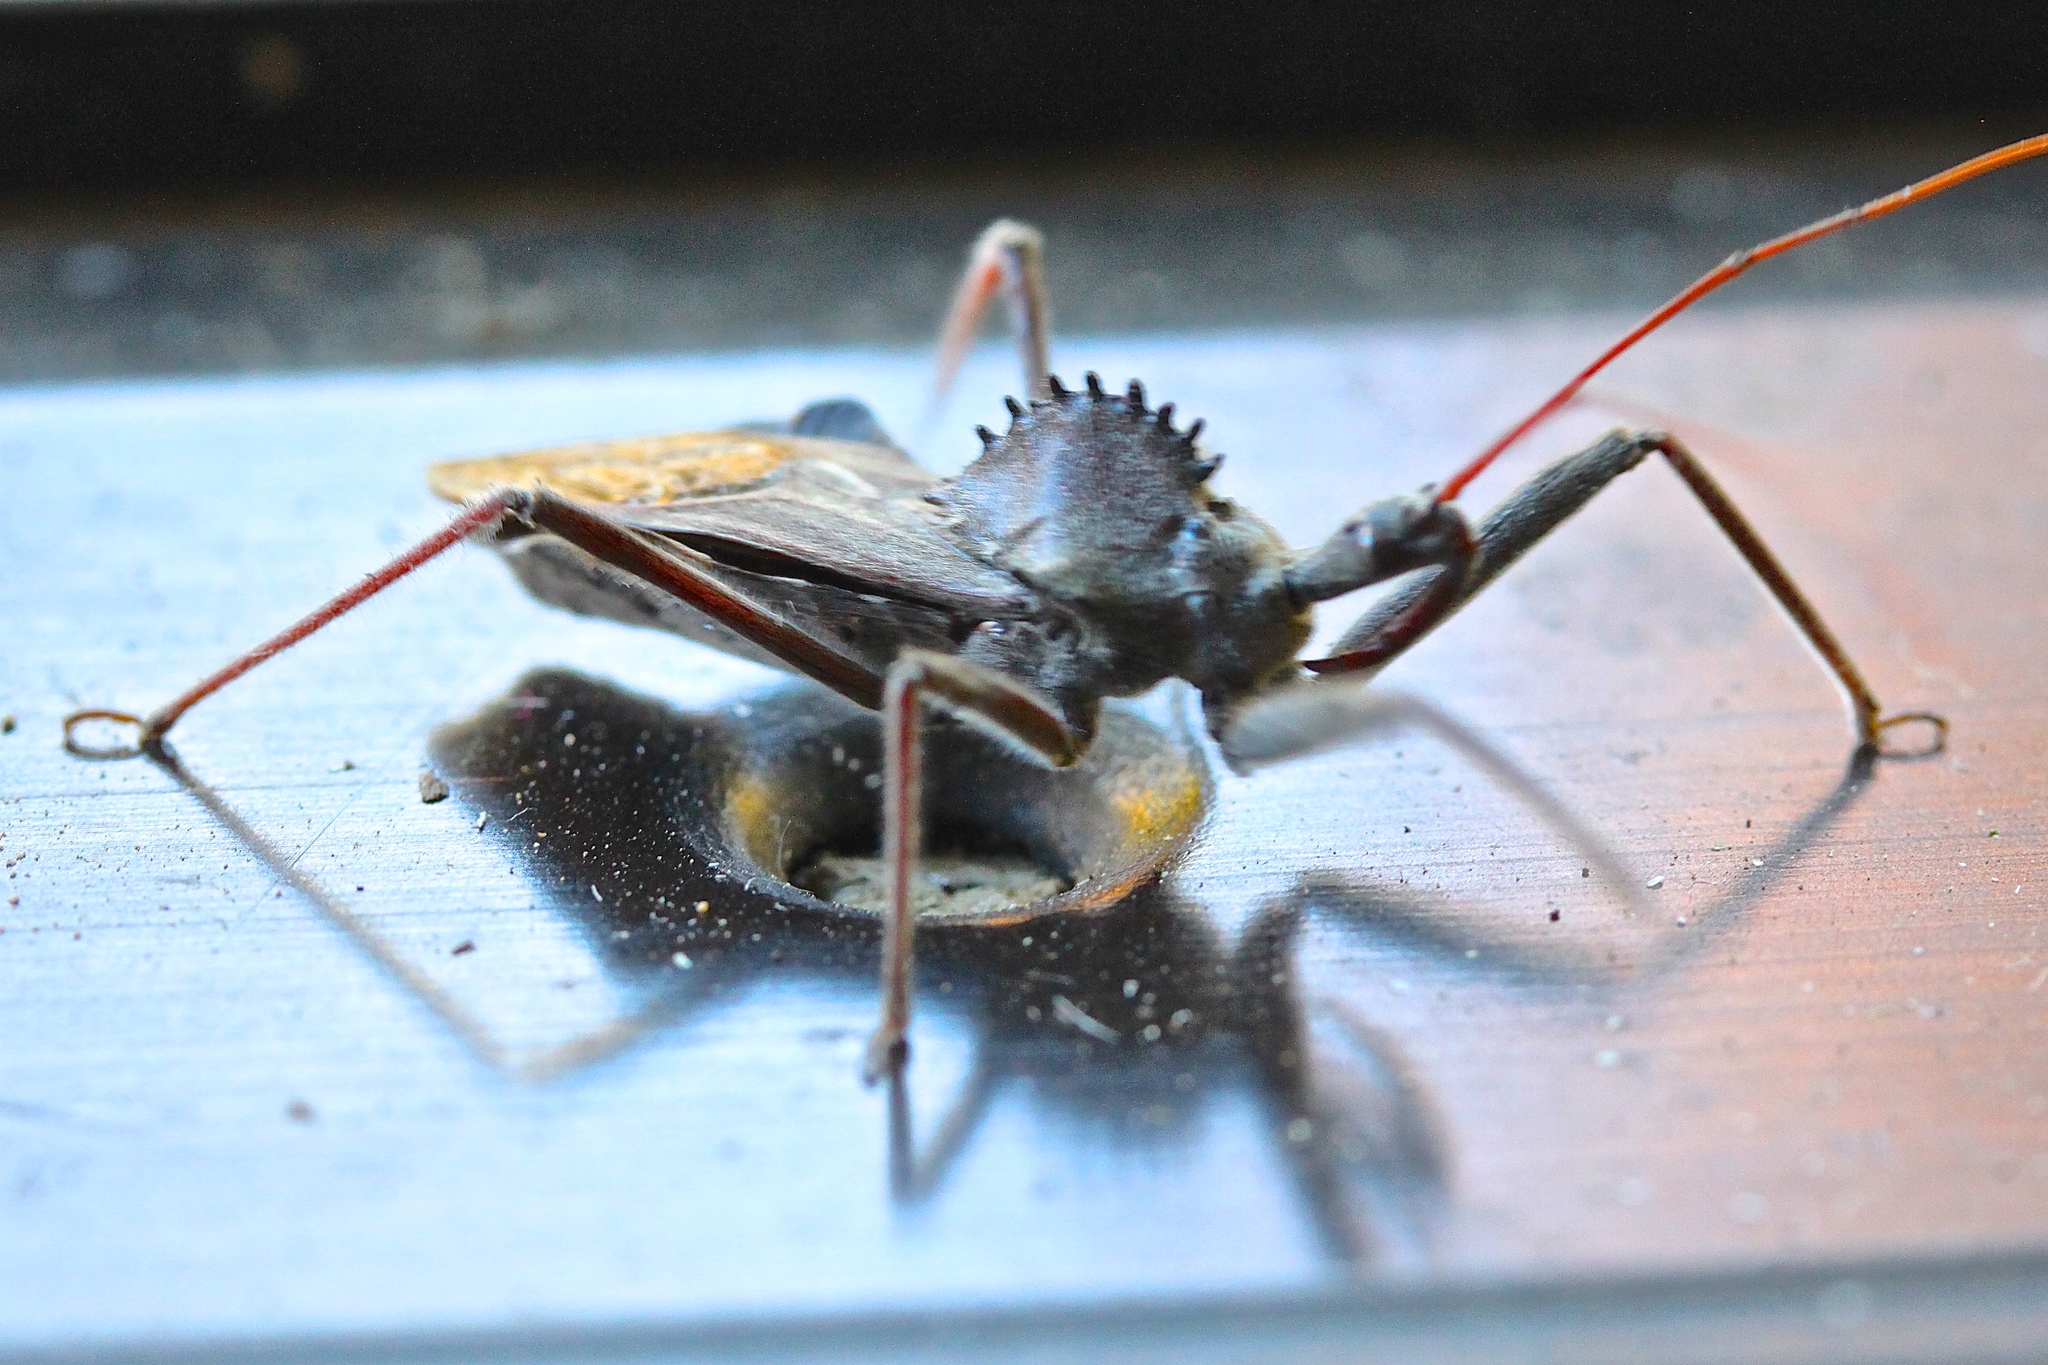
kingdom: Animalia
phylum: Arthropoda
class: Insecta
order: Hemiptera
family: Reduviidae
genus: Arilus
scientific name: Arilus cristatus
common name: North american wheel bug
